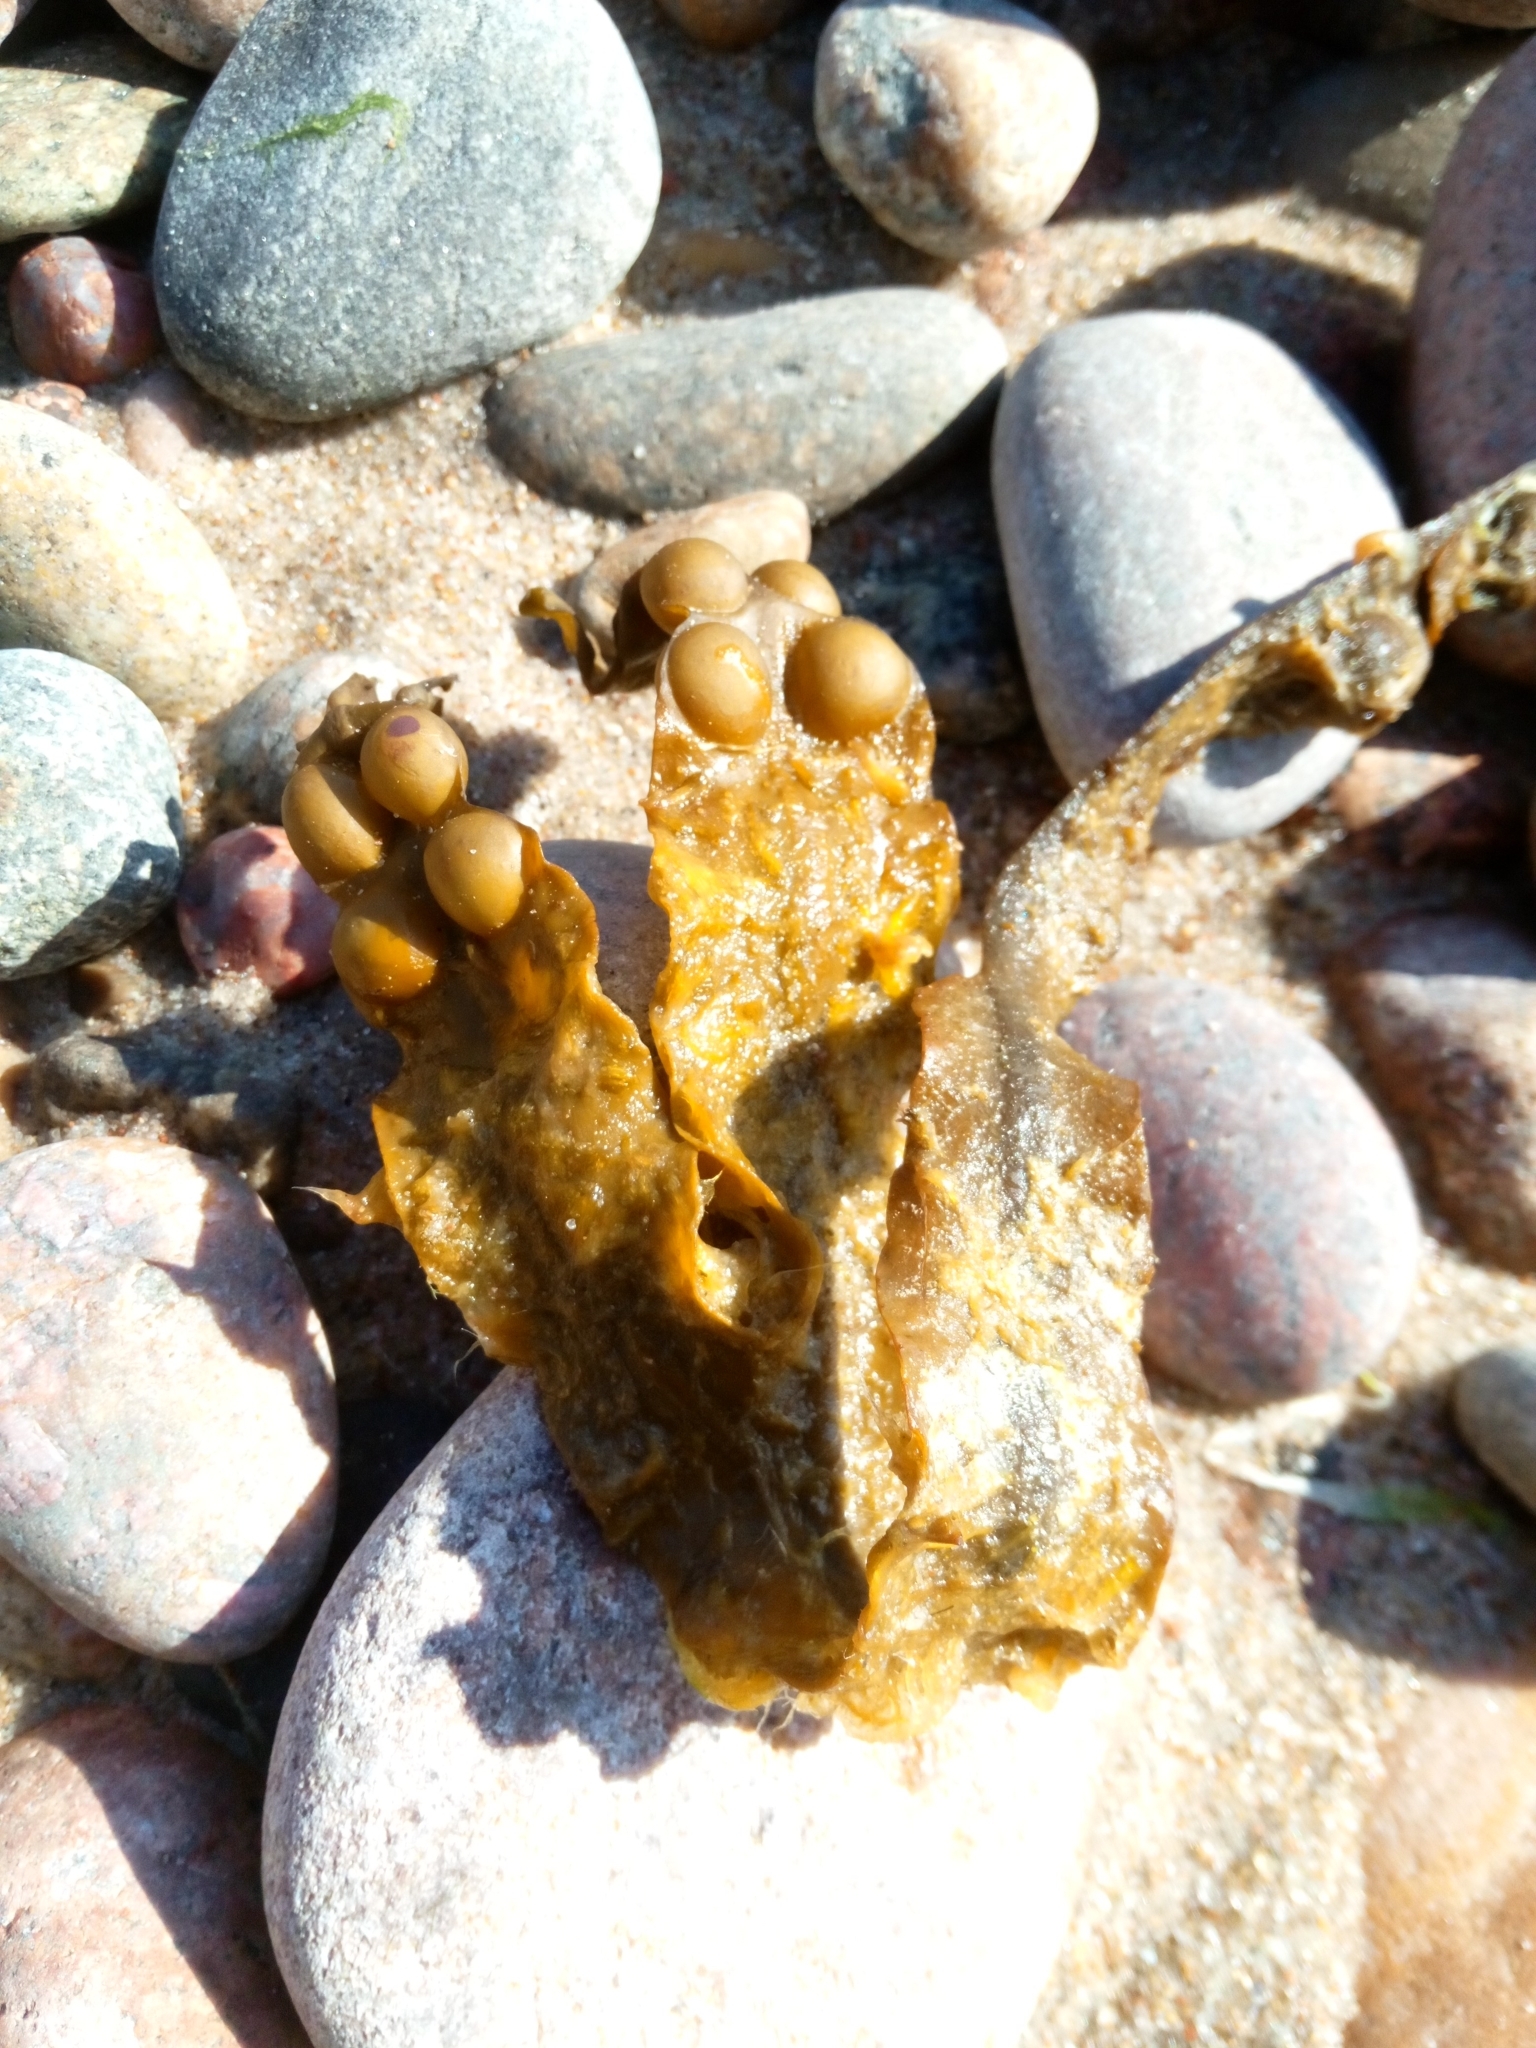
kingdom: Chromista
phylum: Ochrophyta
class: Phaeophyceae
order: Fucales
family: Fucaceae
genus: Fucus
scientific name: Fucus vesiculosus
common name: Bladder wrack
